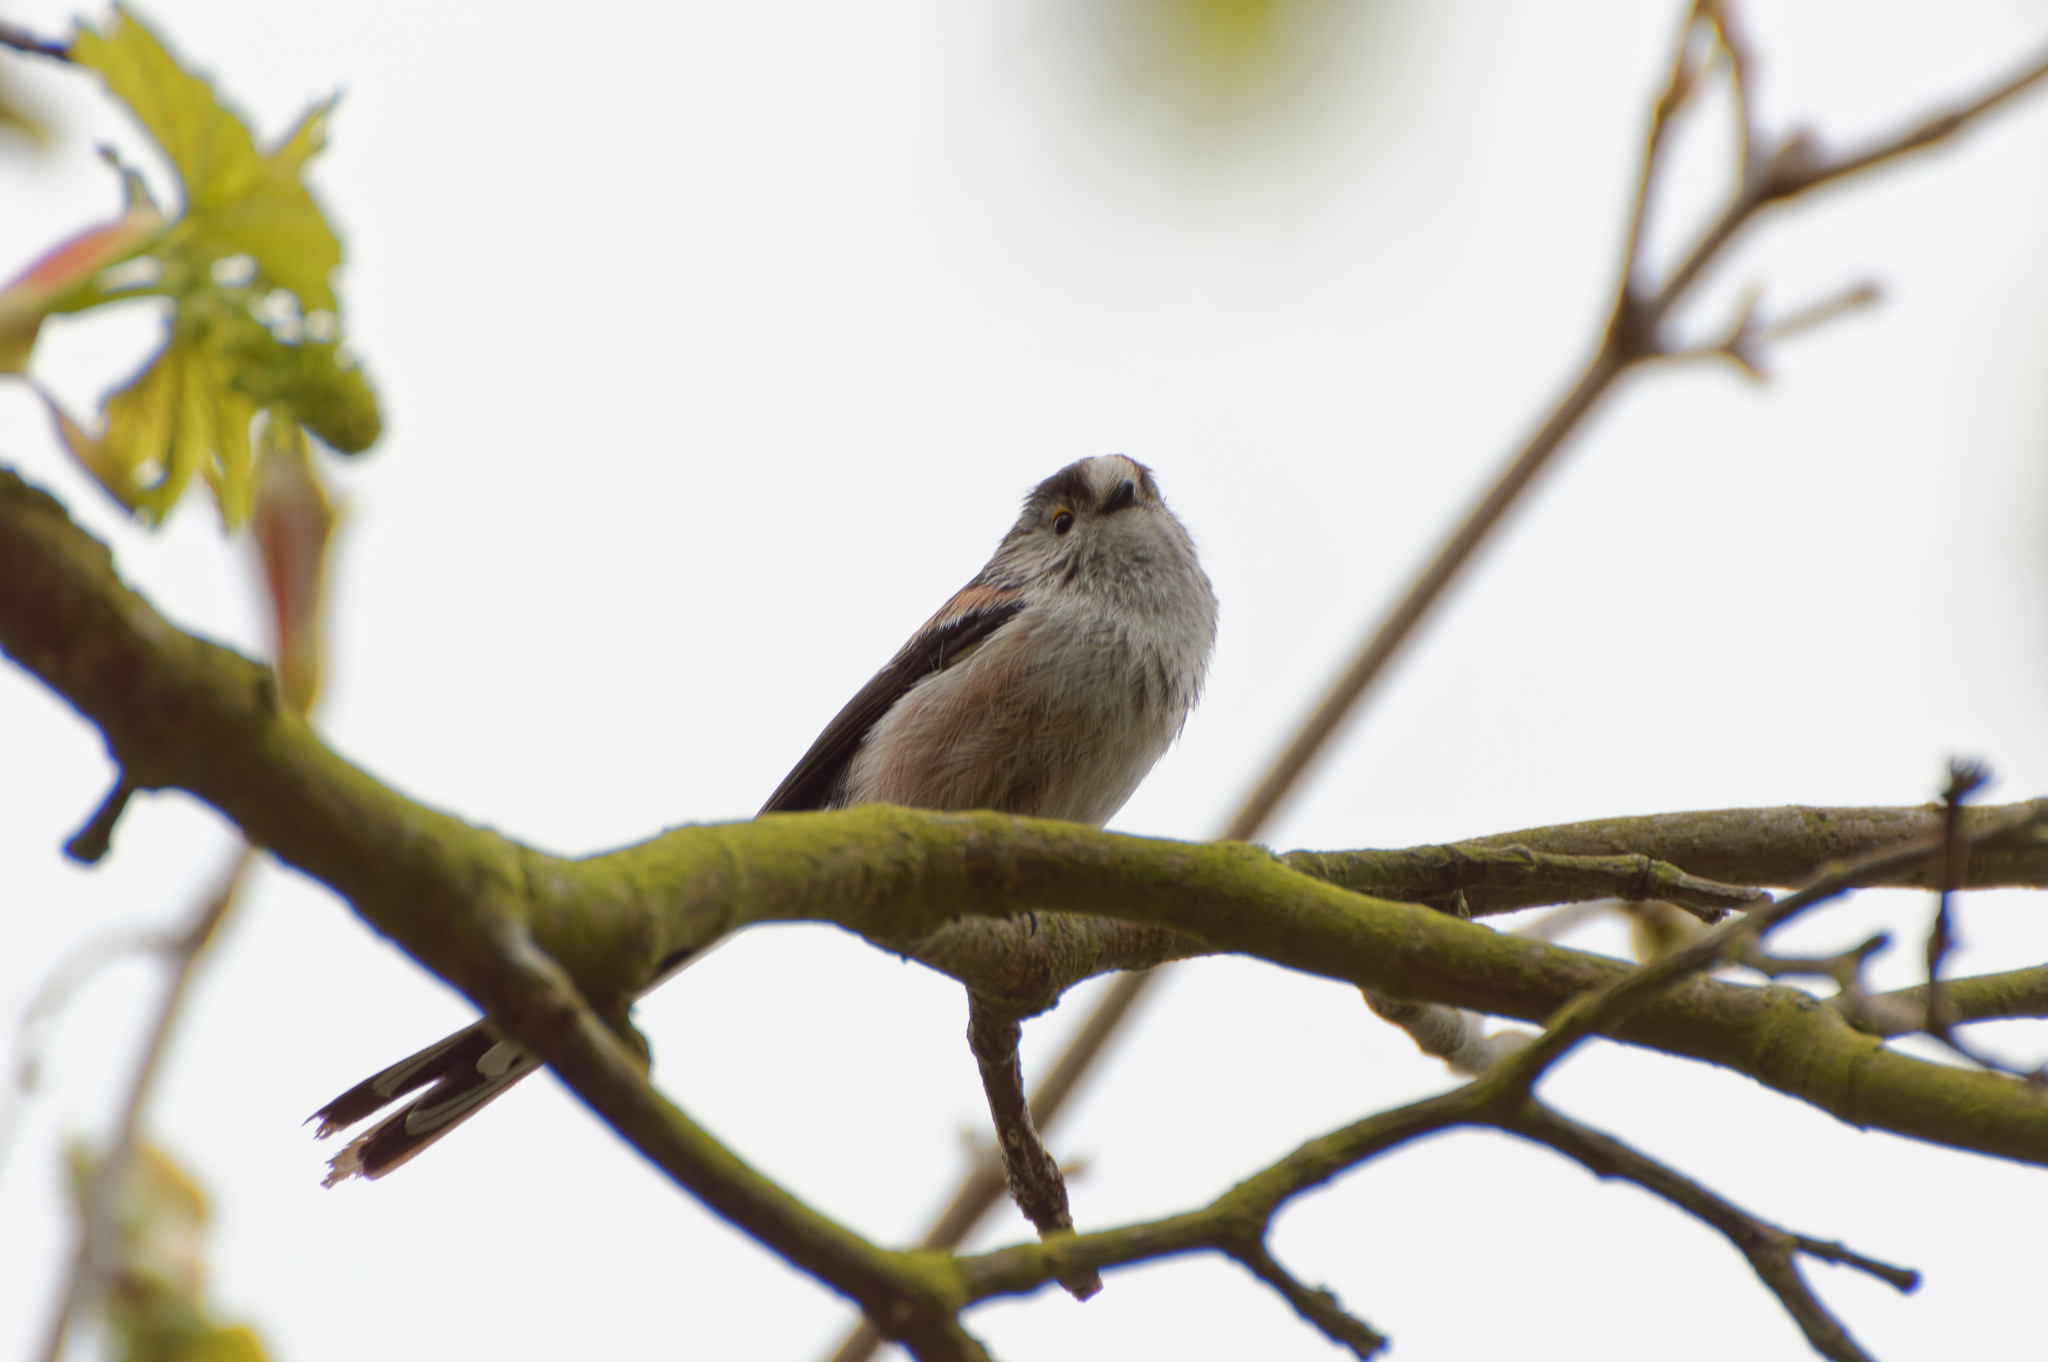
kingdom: Animalia
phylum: Chordata
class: Aves
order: Passeriformes
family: Aegithalidae
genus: Aegithalos
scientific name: Aegithalos caudatus
